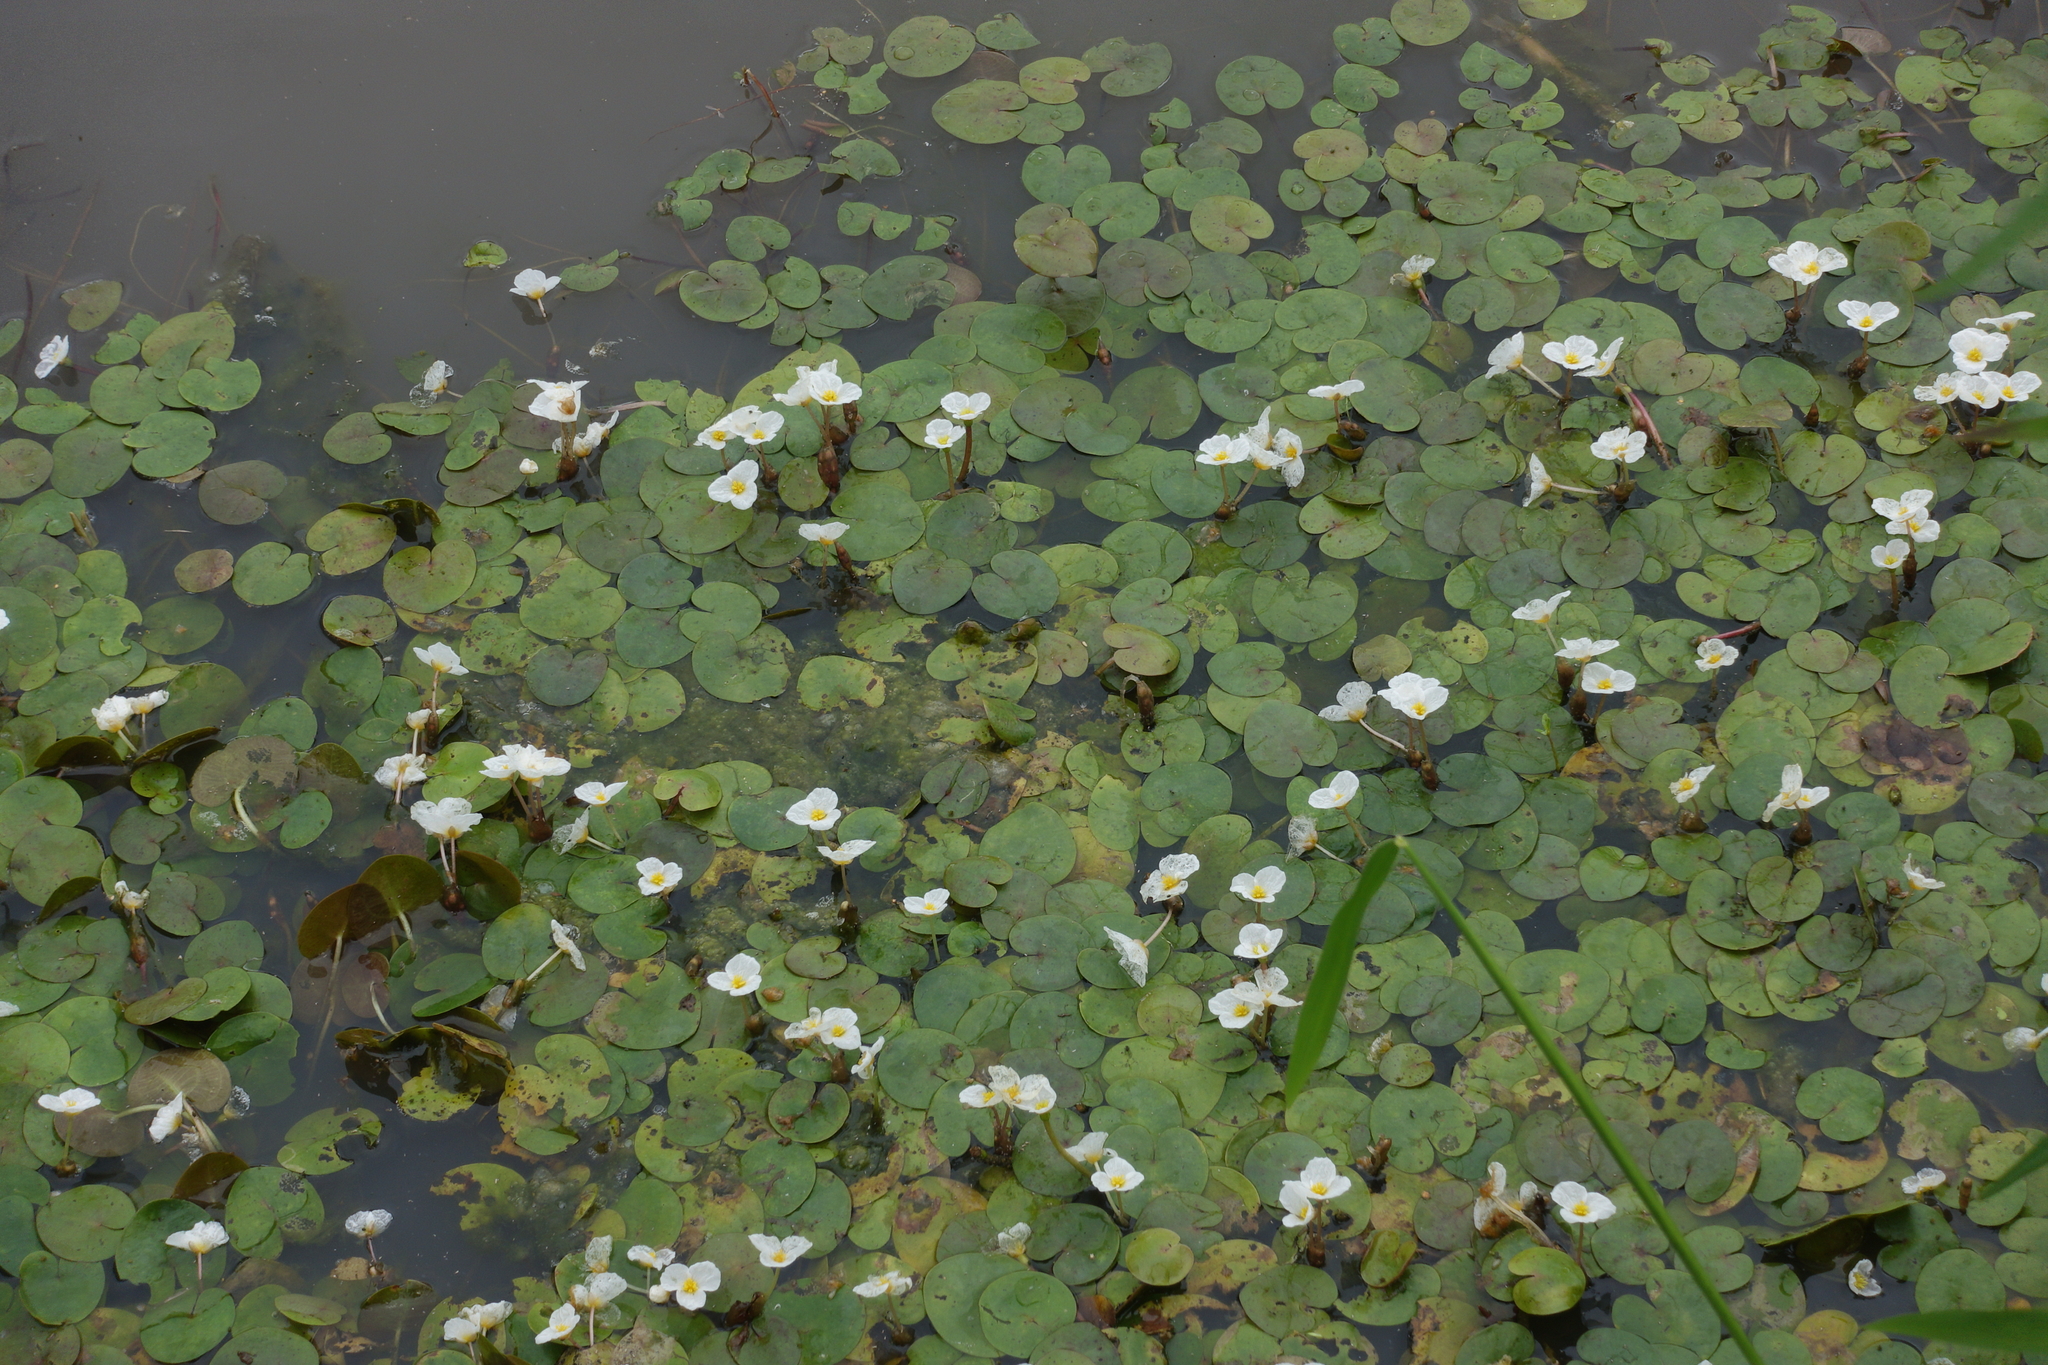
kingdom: Plantae
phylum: Tracheophyta
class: Liliopsida
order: Alismatales
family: Hydrocharitaceae
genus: Hydrocharis
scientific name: Hydrocharis morsus-ranae
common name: Frogbit
